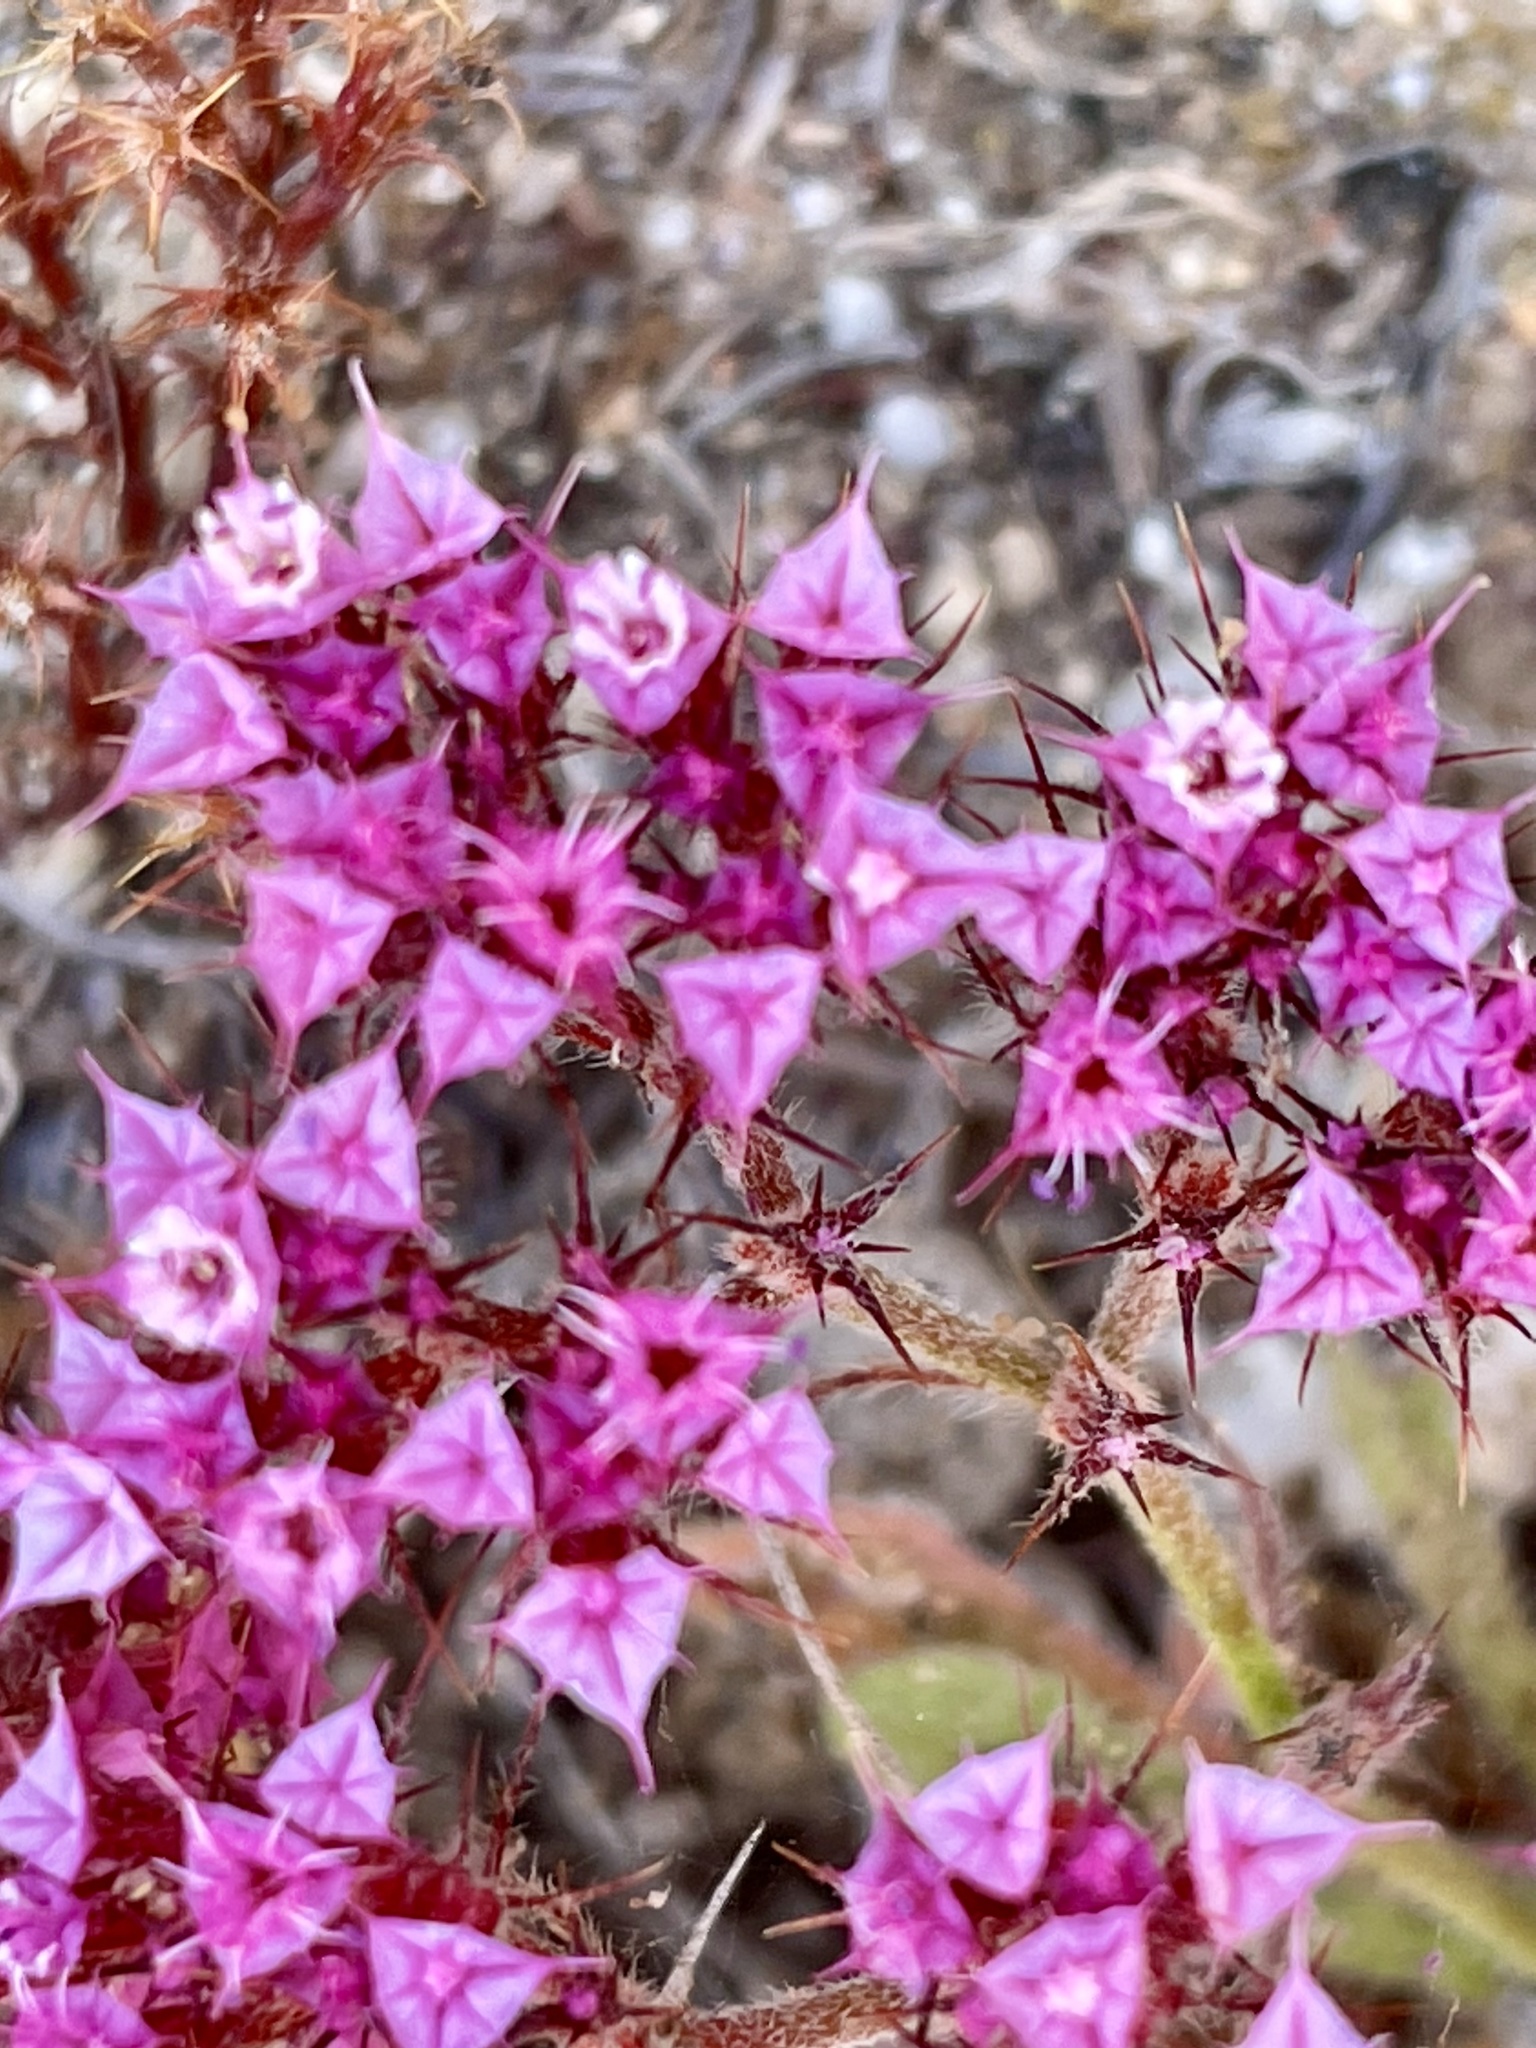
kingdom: Plantae
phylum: Tracheophyta
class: Magnoliopsida
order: Caryophyllales
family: Polygonaceae
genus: Chorizanthe
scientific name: Chorizanthe douglasii
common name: Douglas's spineflower
